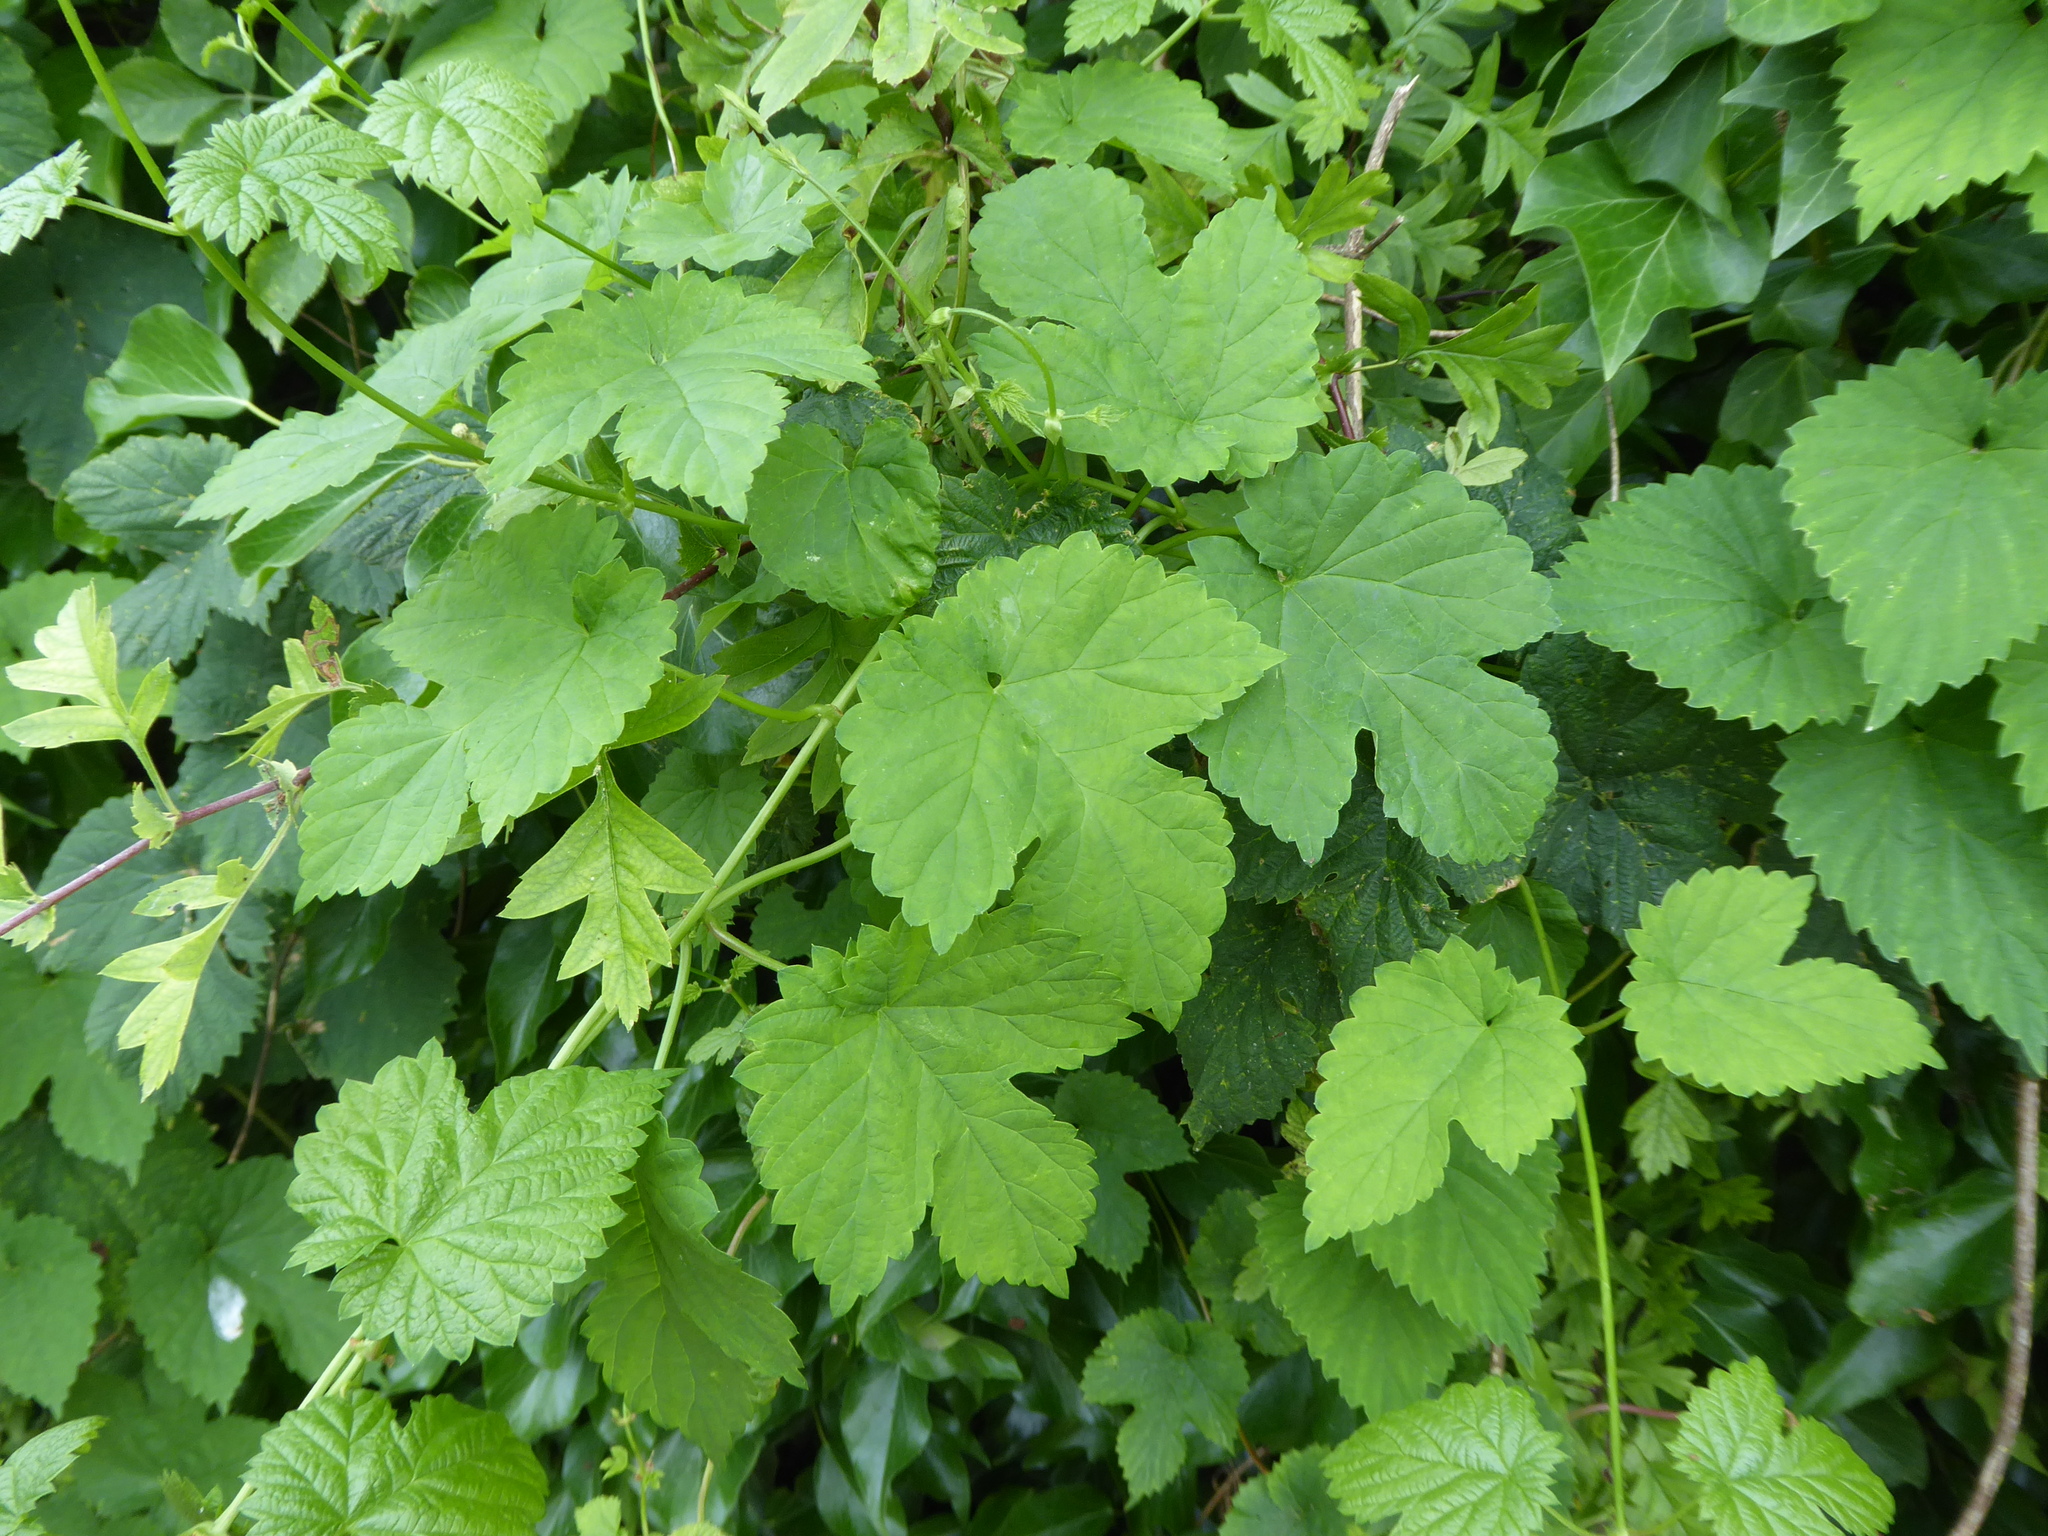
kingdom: Plantae
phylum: Tracheophyta
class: Magnoliopsida
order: Rosales
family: Cannabaceae
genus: Humulus
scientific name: Humulus lupulus
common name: Hop
